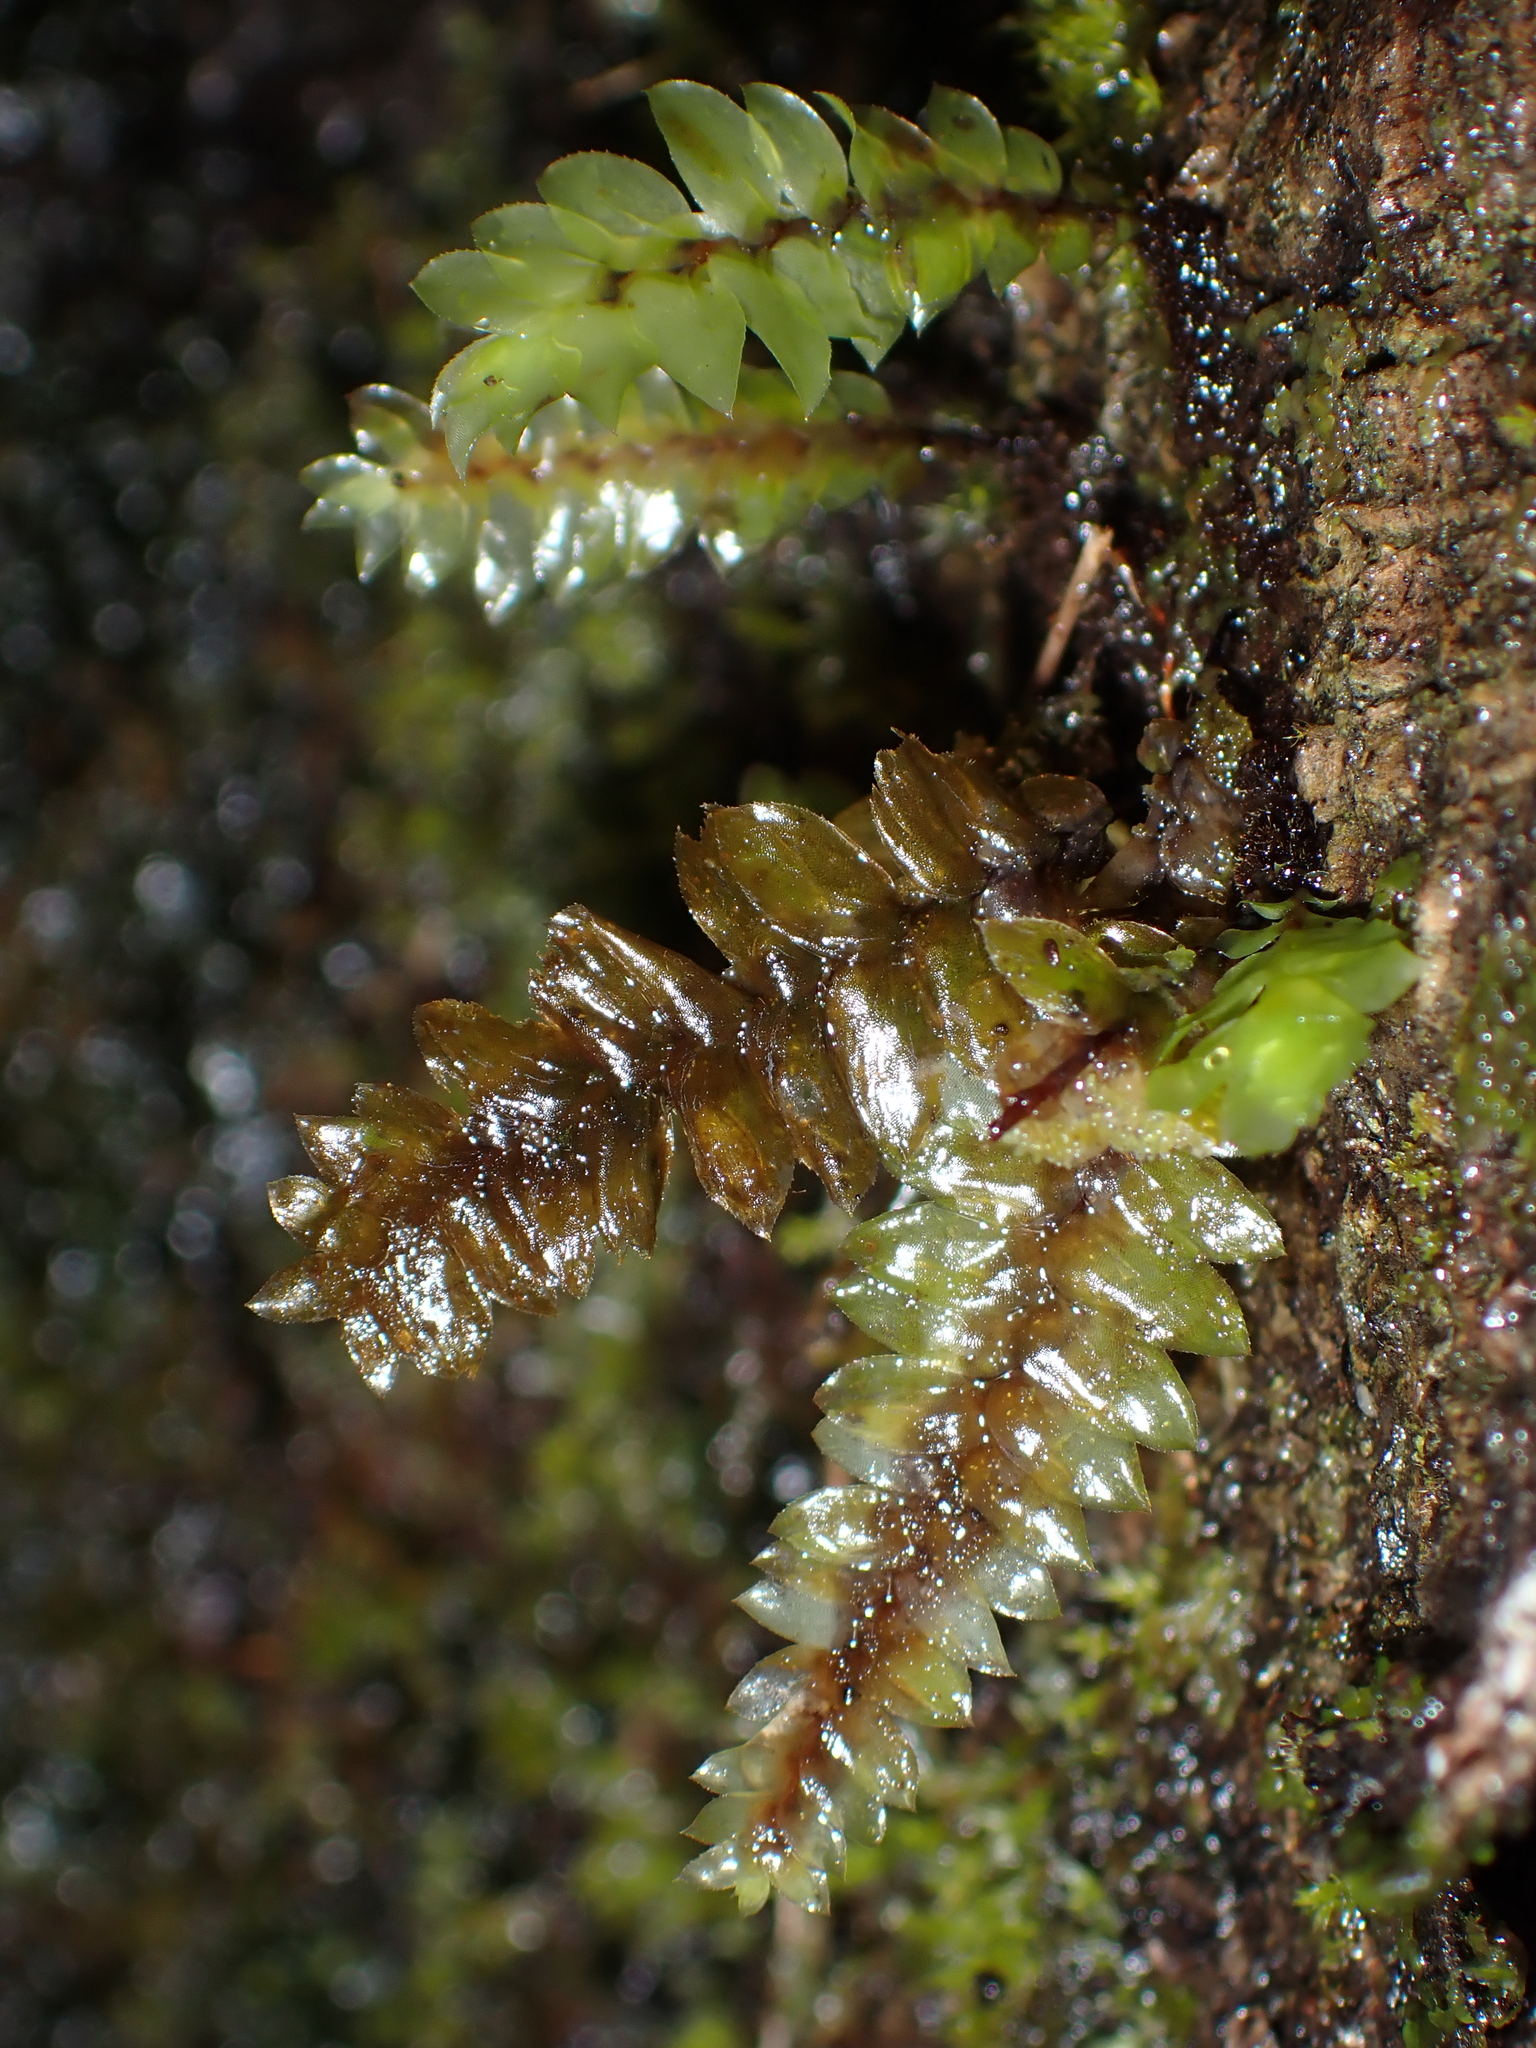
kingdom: Plantae
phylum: Bryophyta
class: Bryopsida
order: Hypopterygiales
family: Hypopterygiaceae
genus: Cyathophorum
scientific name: Cyathophorum bulbosum
